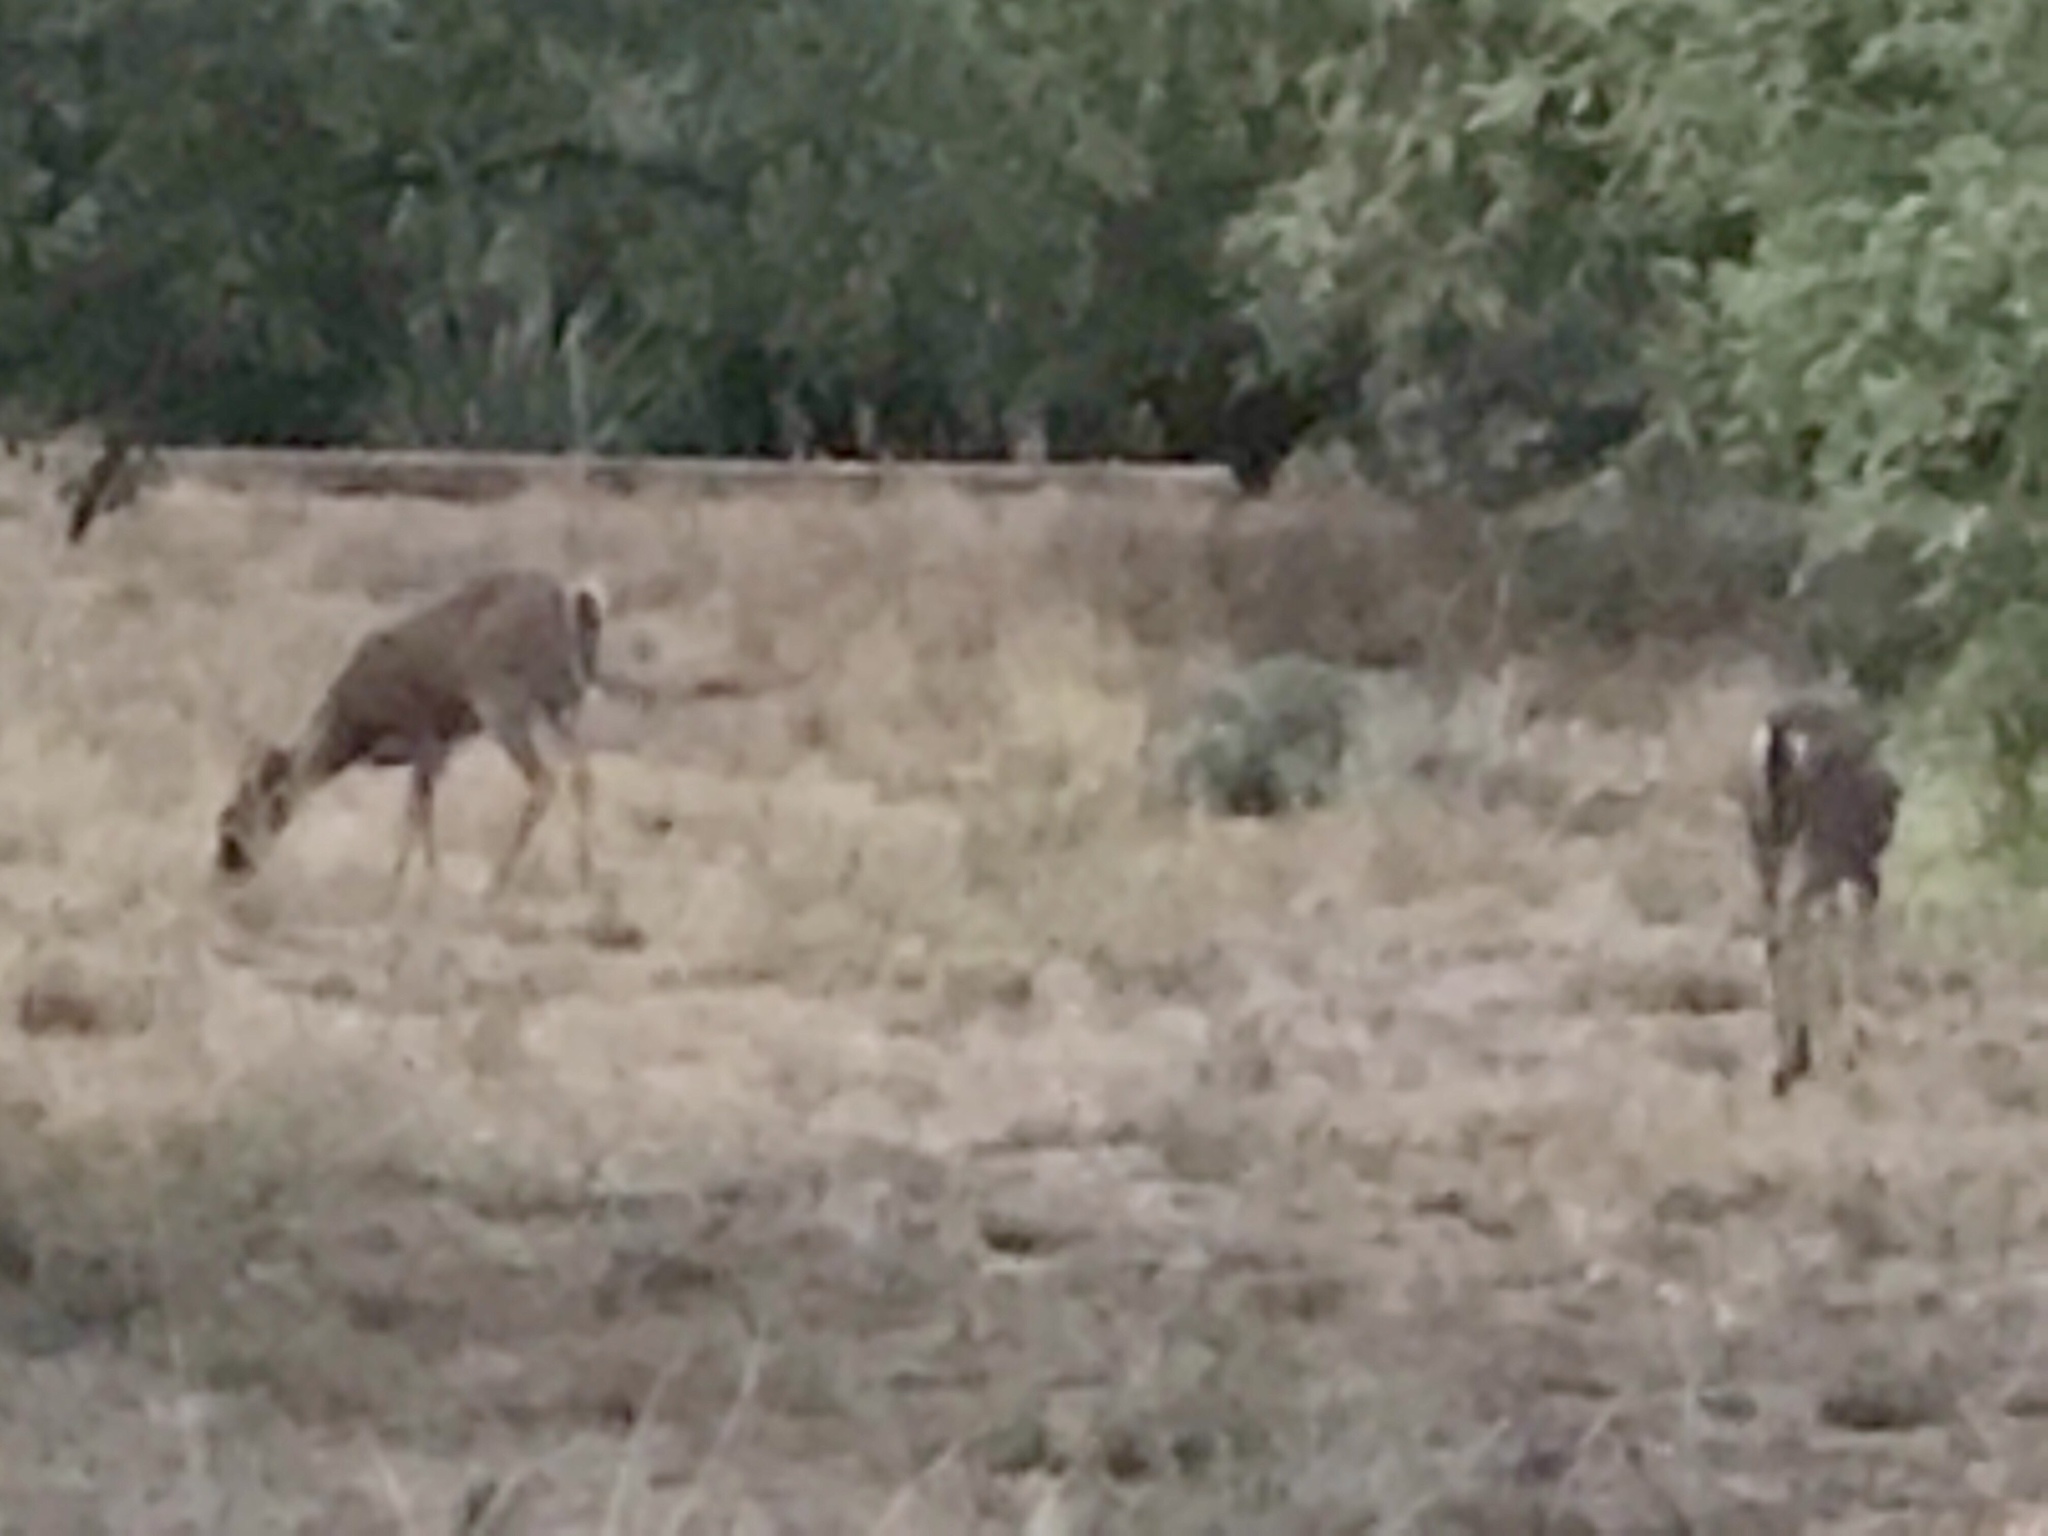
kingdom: Animalia
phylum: Chordata
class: Mammalia
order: Artiodactyla
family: Cervidae
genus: Odocoileus
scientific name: Odocoileus virginianus
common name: White-tailed deer
